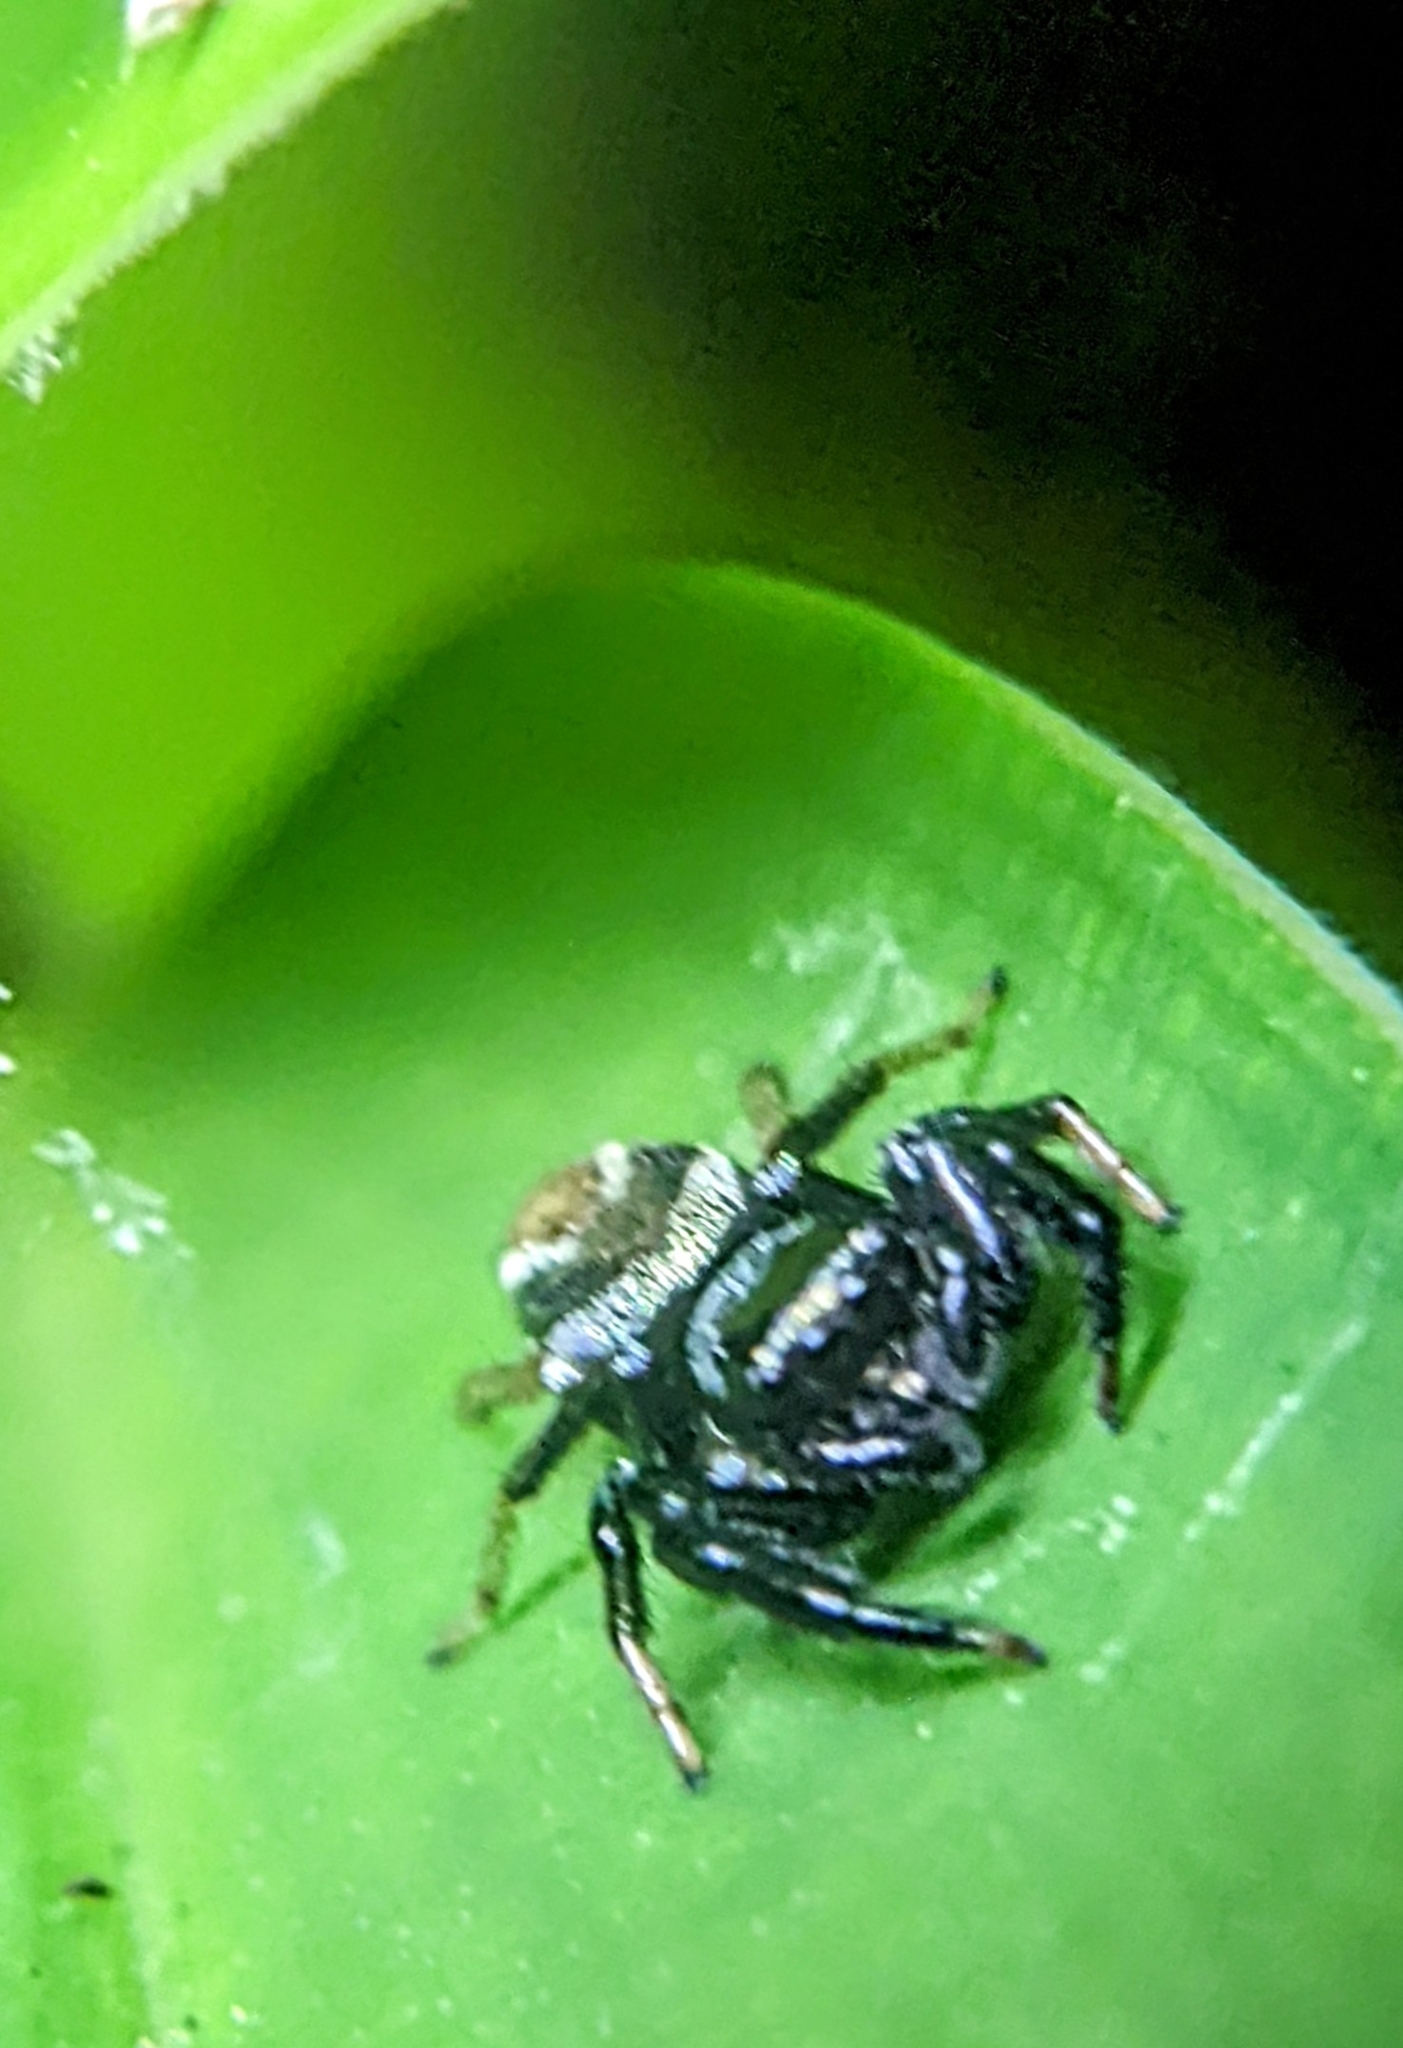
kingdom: Animalia
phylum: Arthropoda
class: Arachnida
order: Araneae
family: Salticidae
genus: Thiania
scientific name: Thiania bhamoensis
